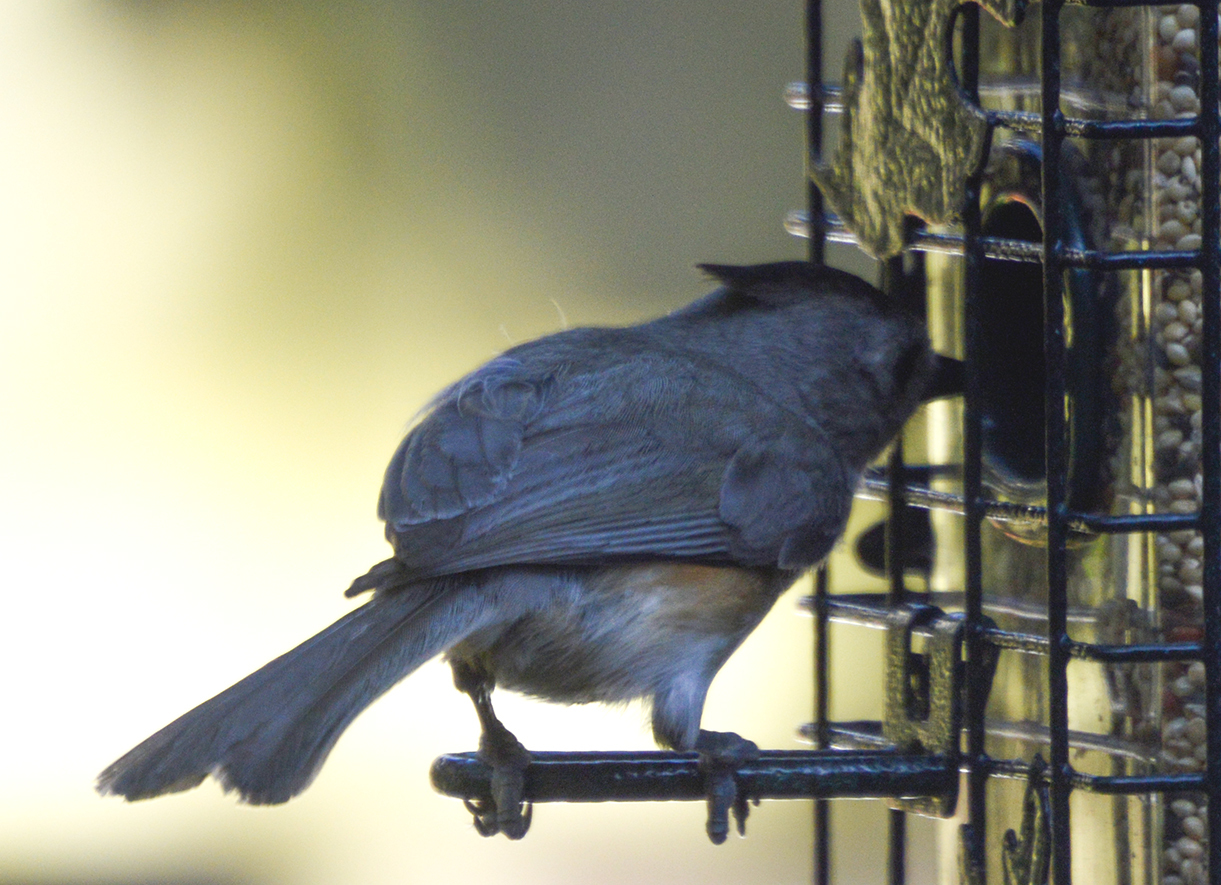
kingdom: Animalia
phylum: Chordata
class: Aves
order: Passeriformes
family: Paridae
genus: Baeolophus
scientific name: Baeolophus atricristatus
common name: Black-crested titmouse
